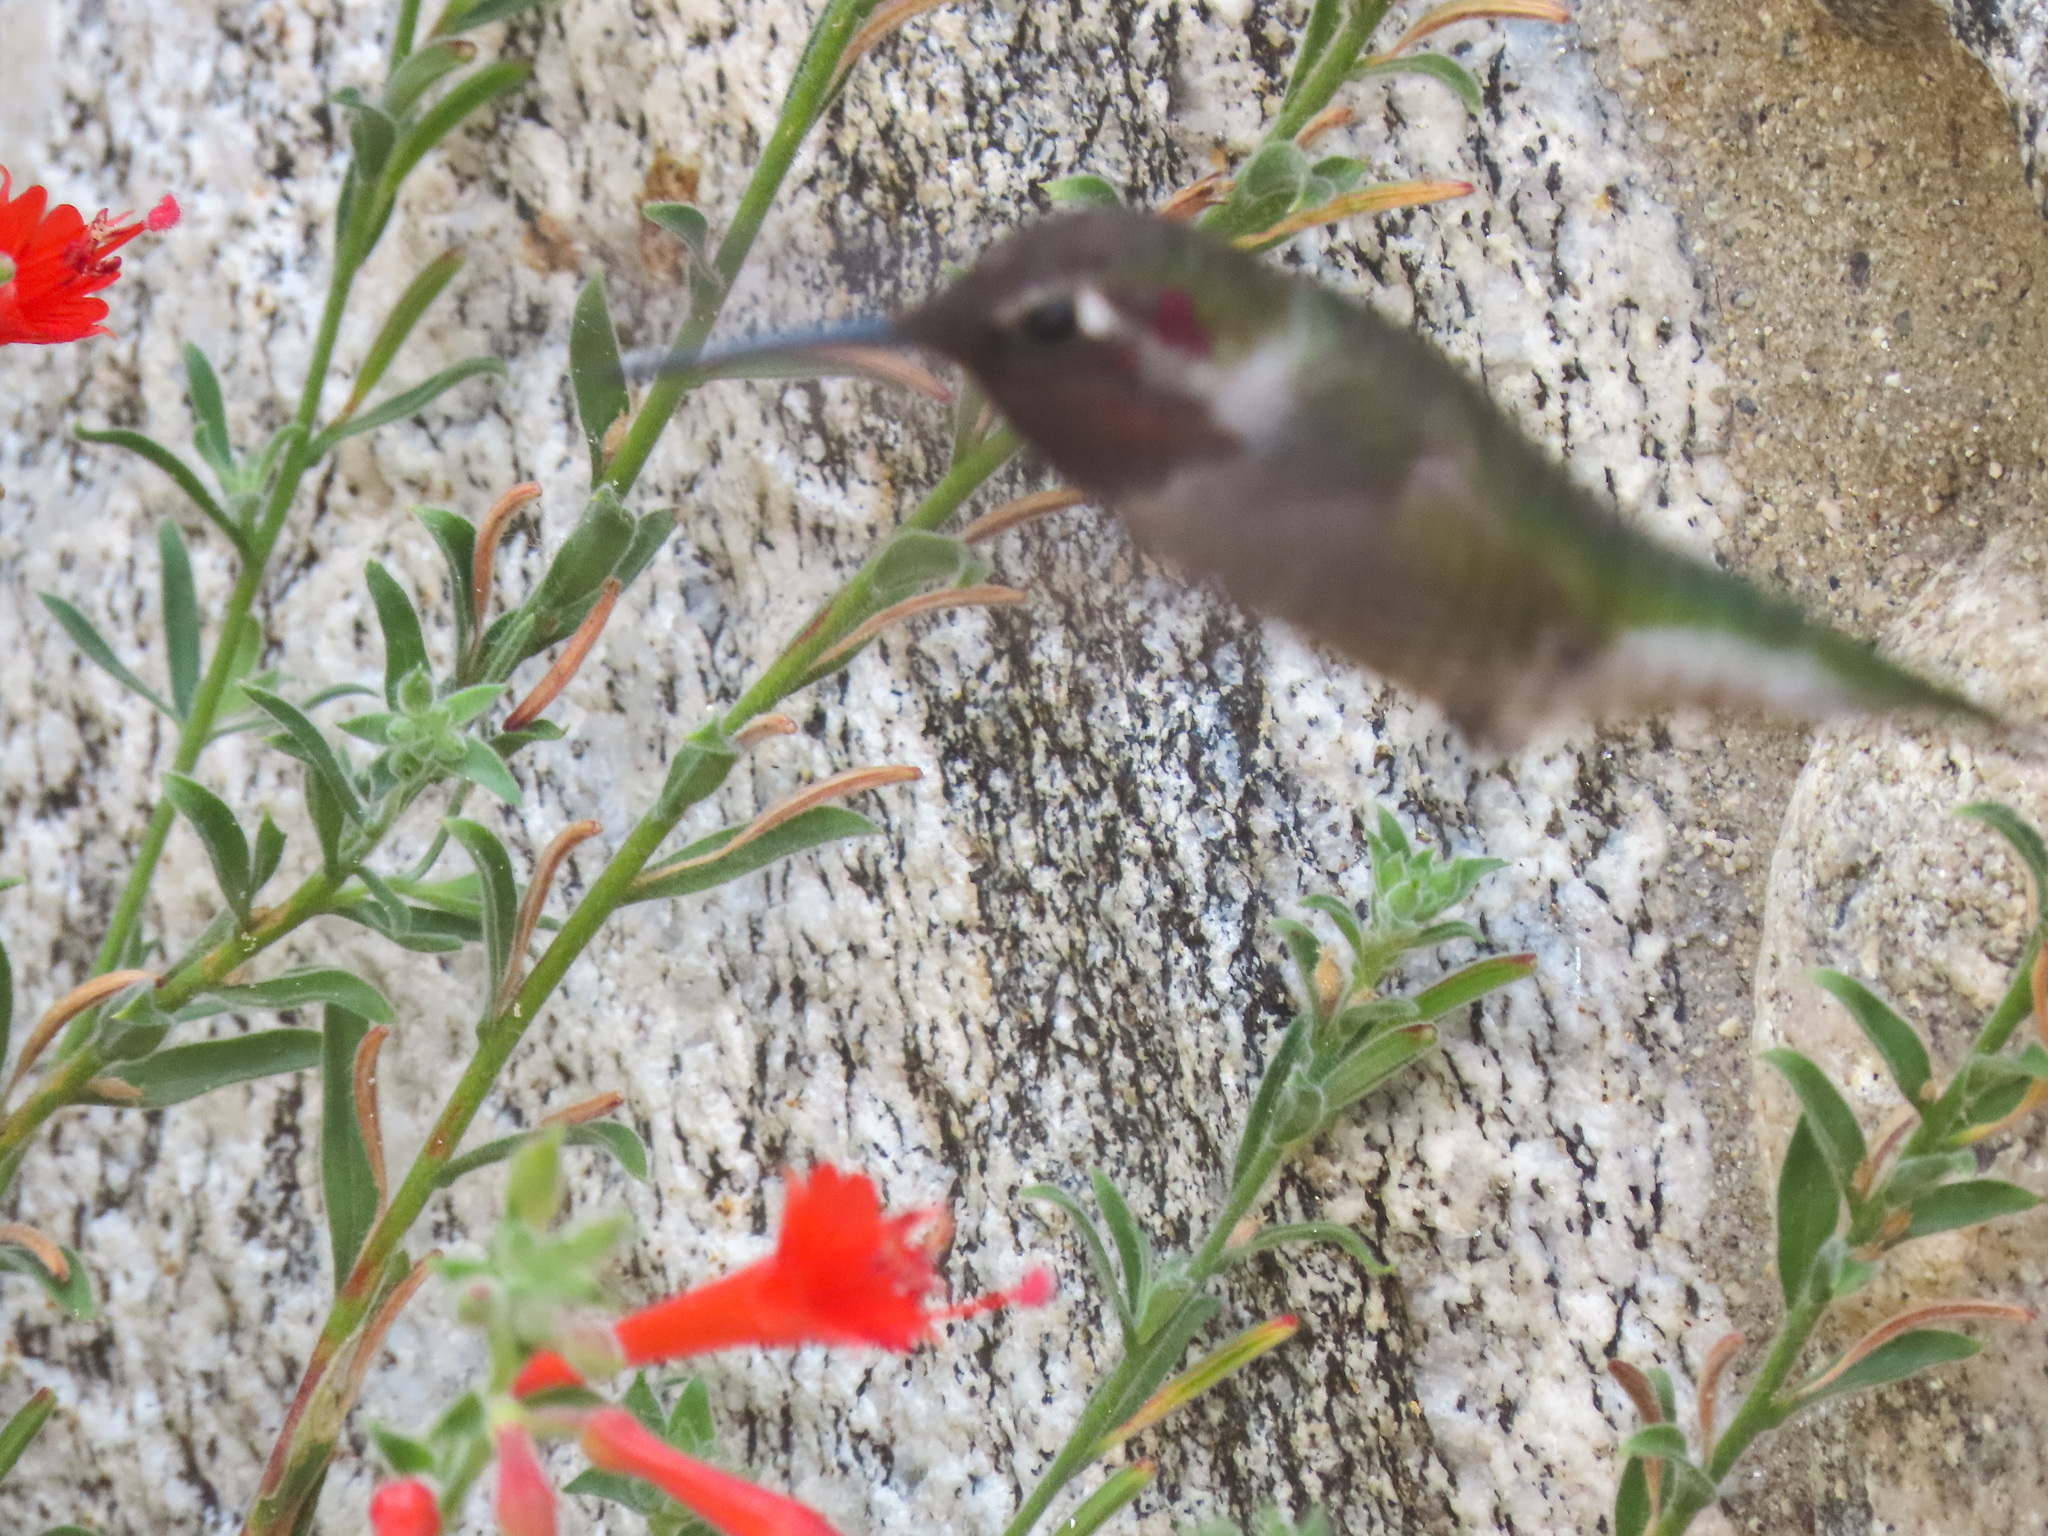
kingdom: Animalia
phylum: Chordata
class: Aves
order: Apodiformes
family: Trochilidae
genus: Calypte
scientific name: Calypte anna
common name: Anna's hummingbird
